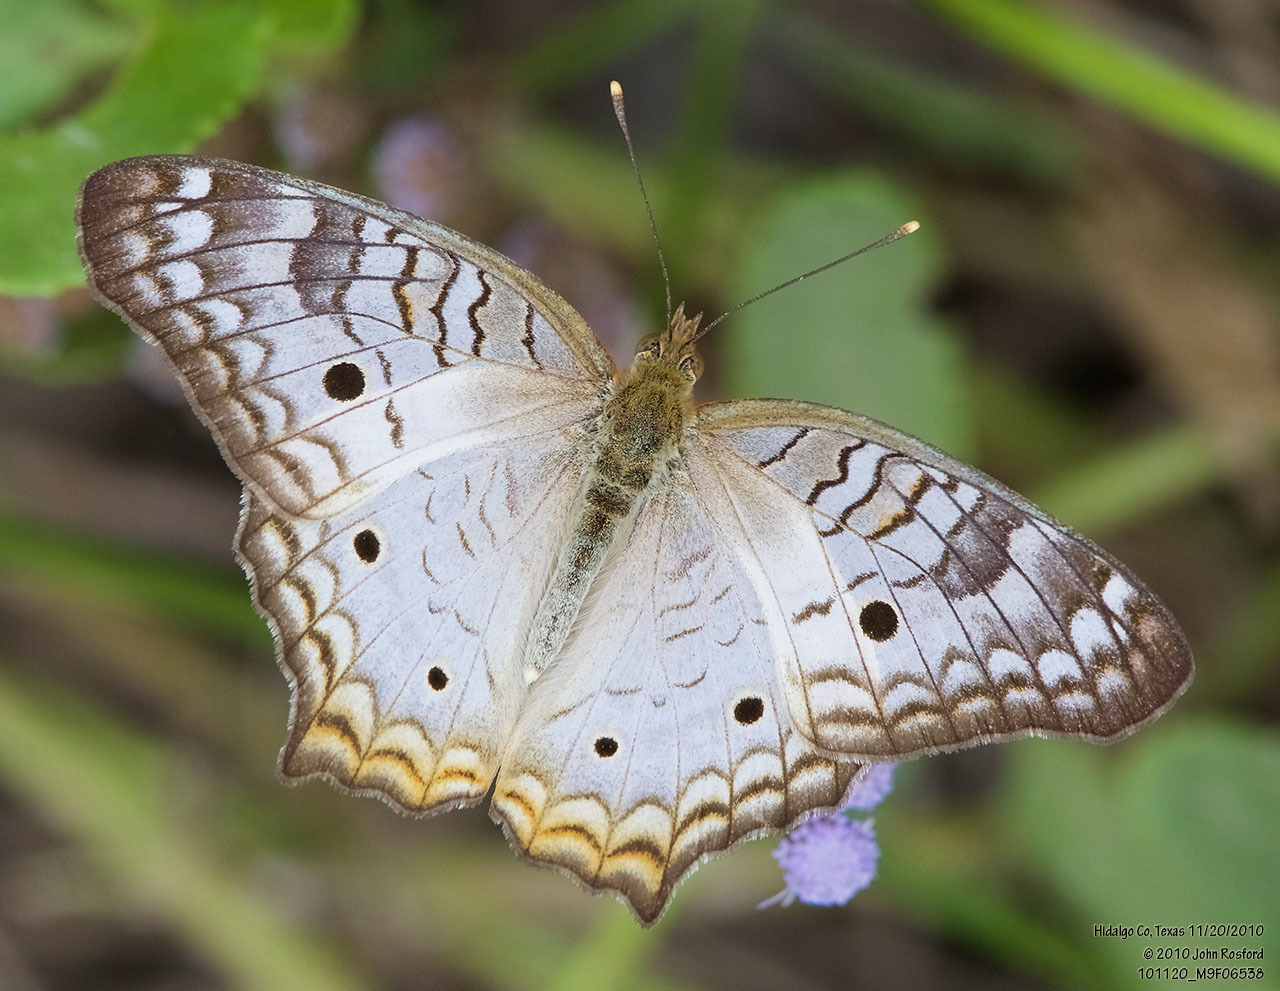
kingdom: Animalia
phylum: Arthropoda
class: Insecta
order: Lepidoptera
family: Nymphalidae
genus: Anartia
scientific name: Anartia jatrophae
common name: White peacock
